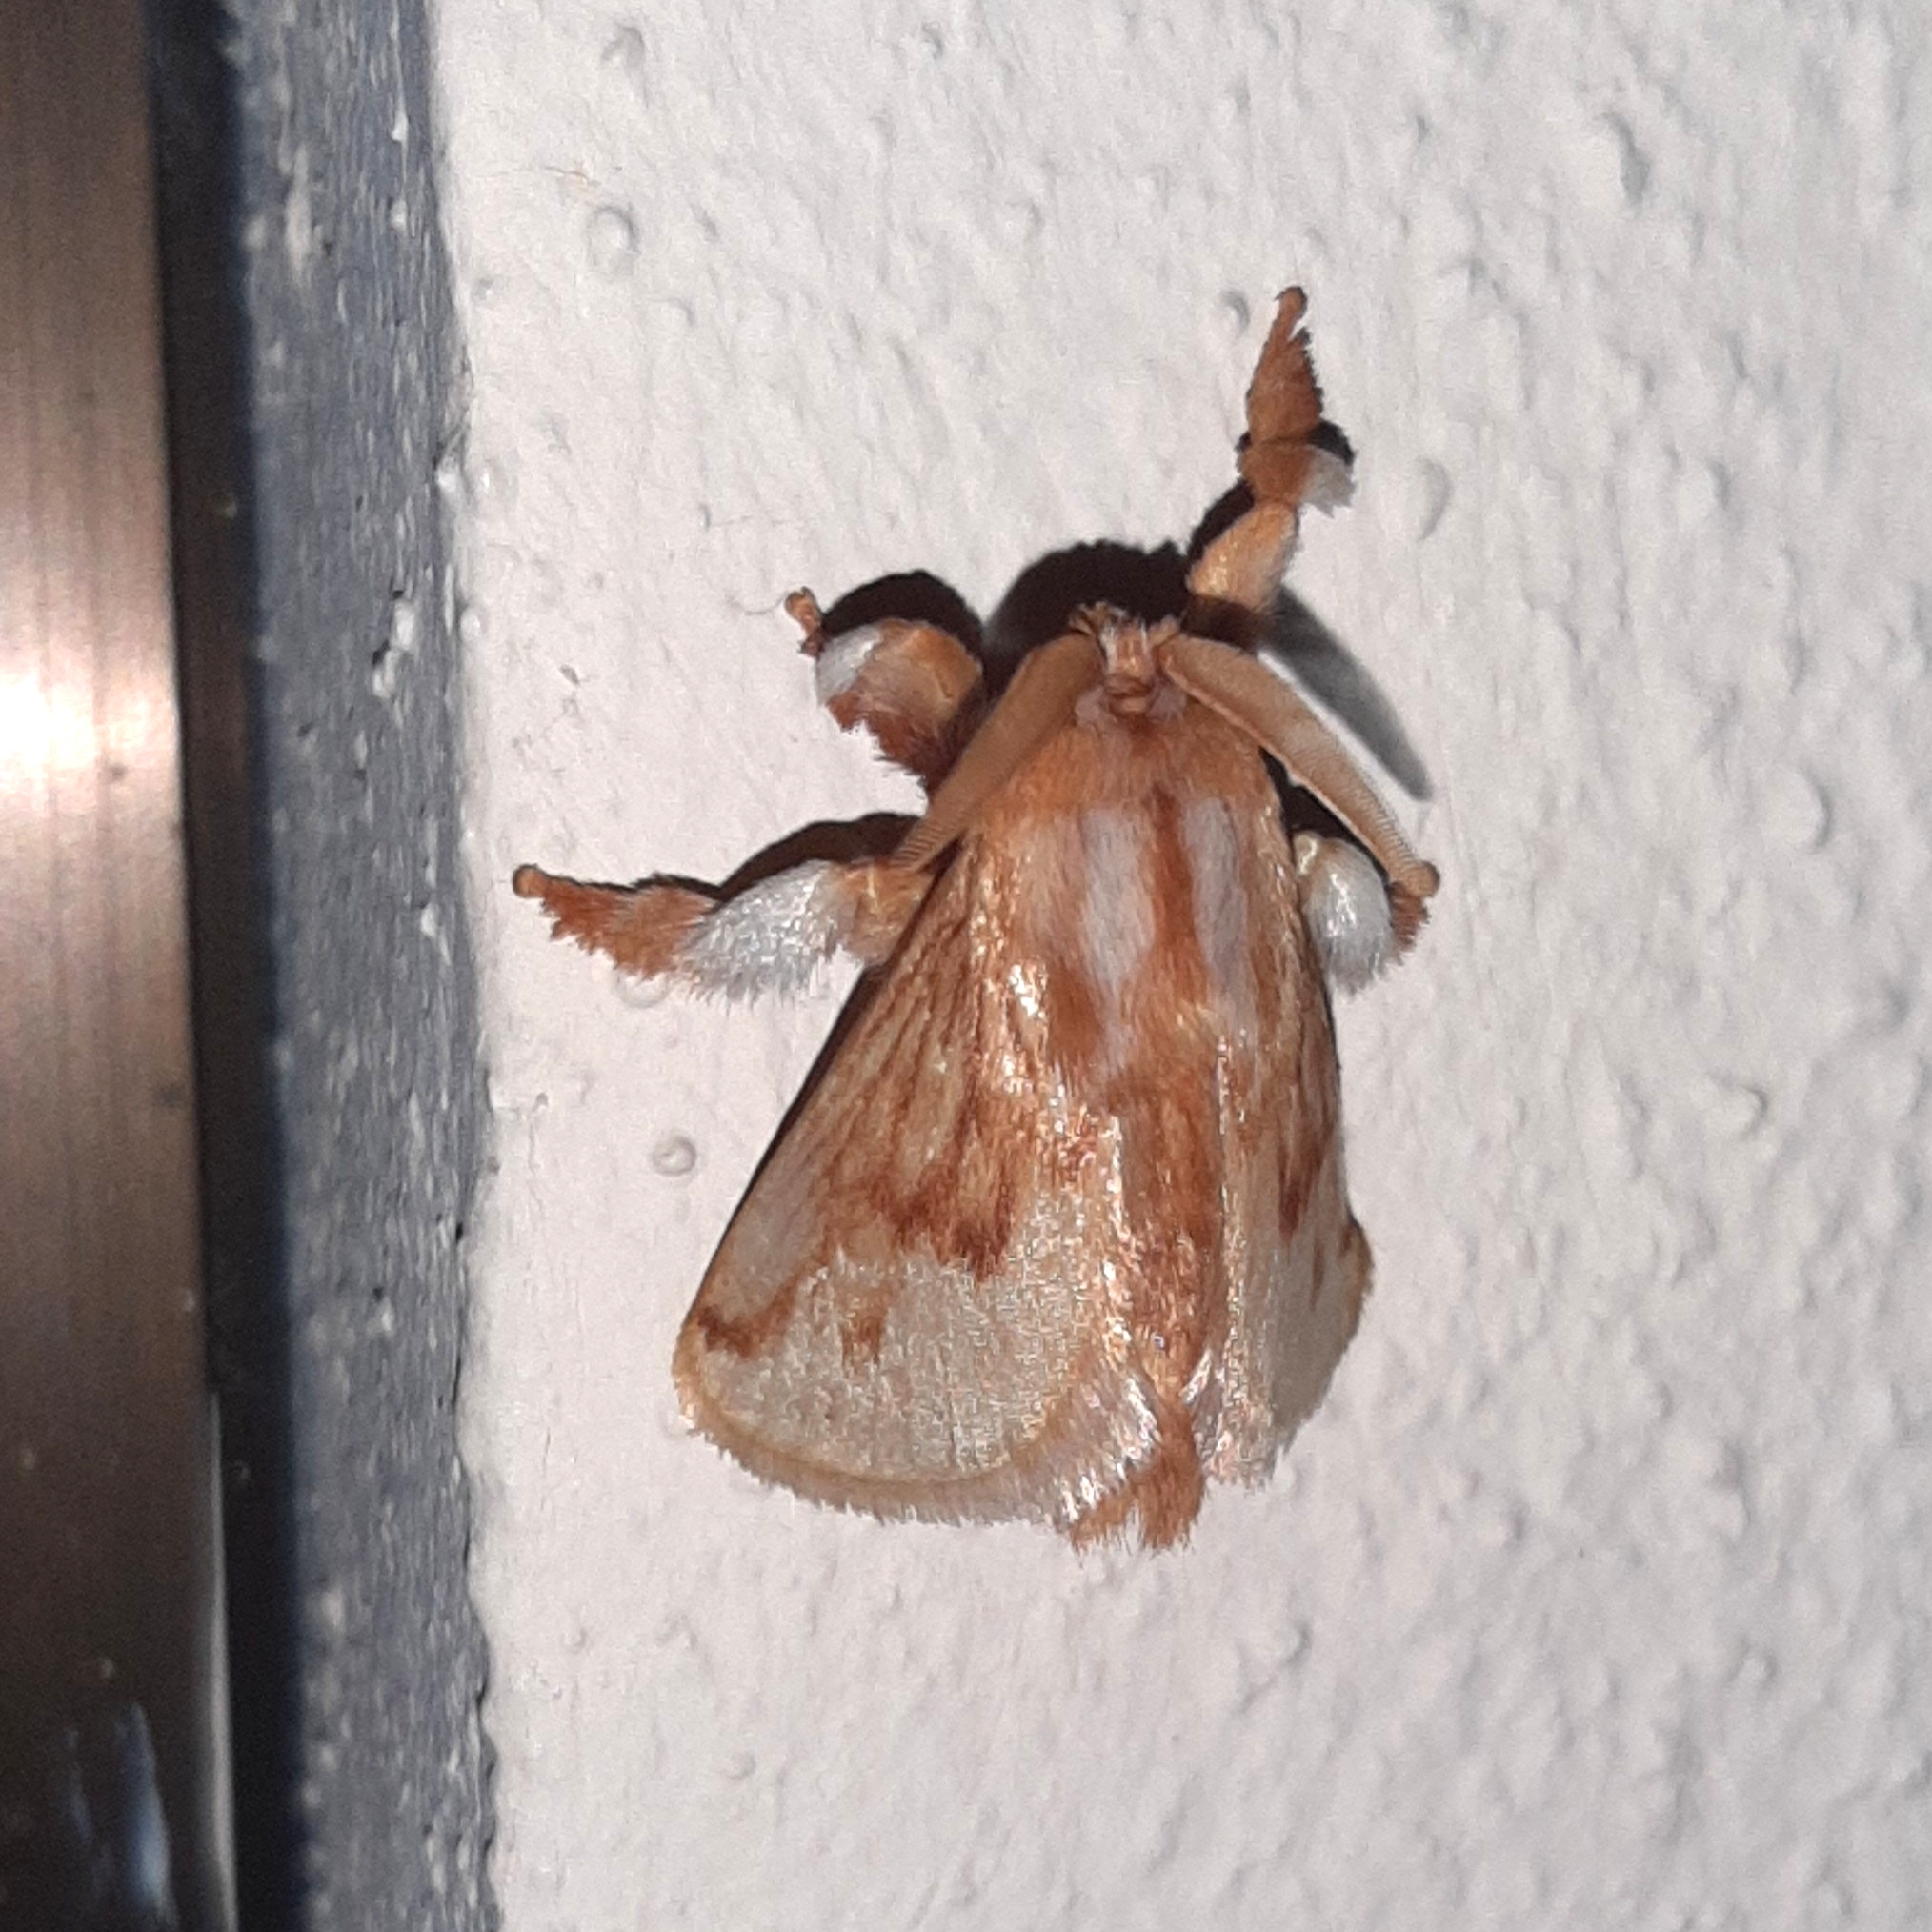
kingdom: Animalia
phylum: Arthropoda
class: Insecta
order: Lepidoptera
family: Limacodidae
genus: Perola
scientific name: Perola sericea
